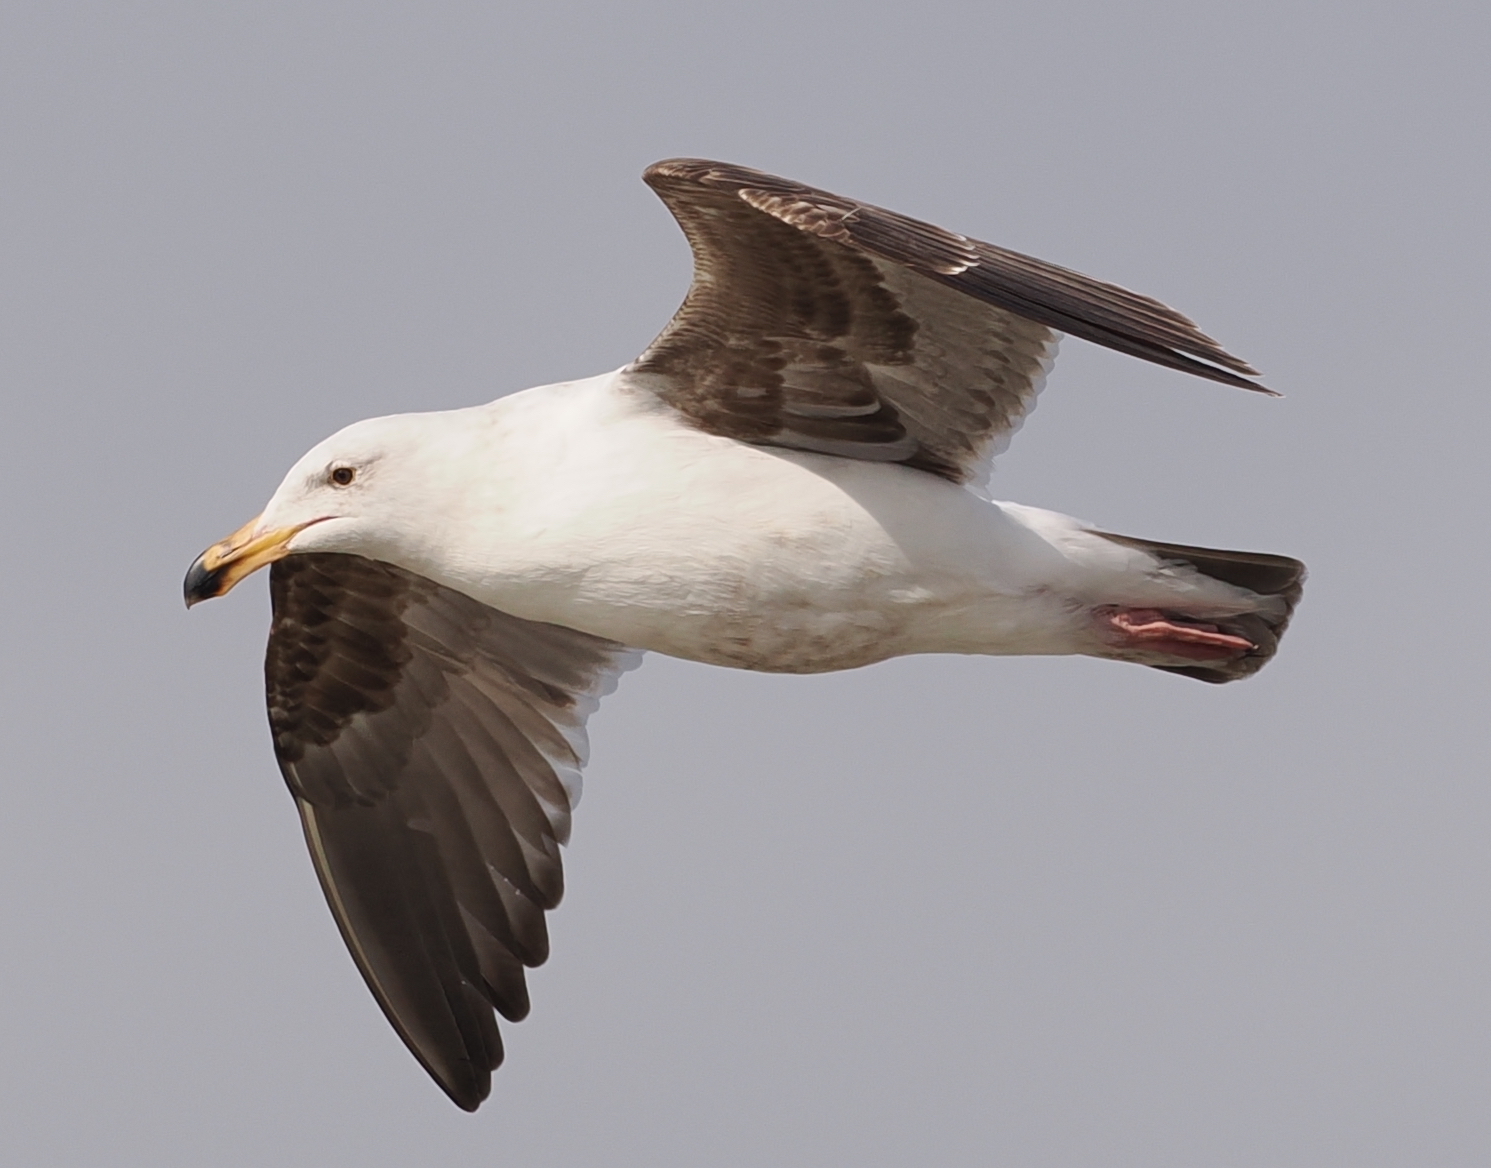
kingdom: Animalia
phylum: Chordata
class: Aves
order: Charadriiformes
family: Laridae
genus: Larus
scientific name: Larus occidentalis
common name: Western gull
